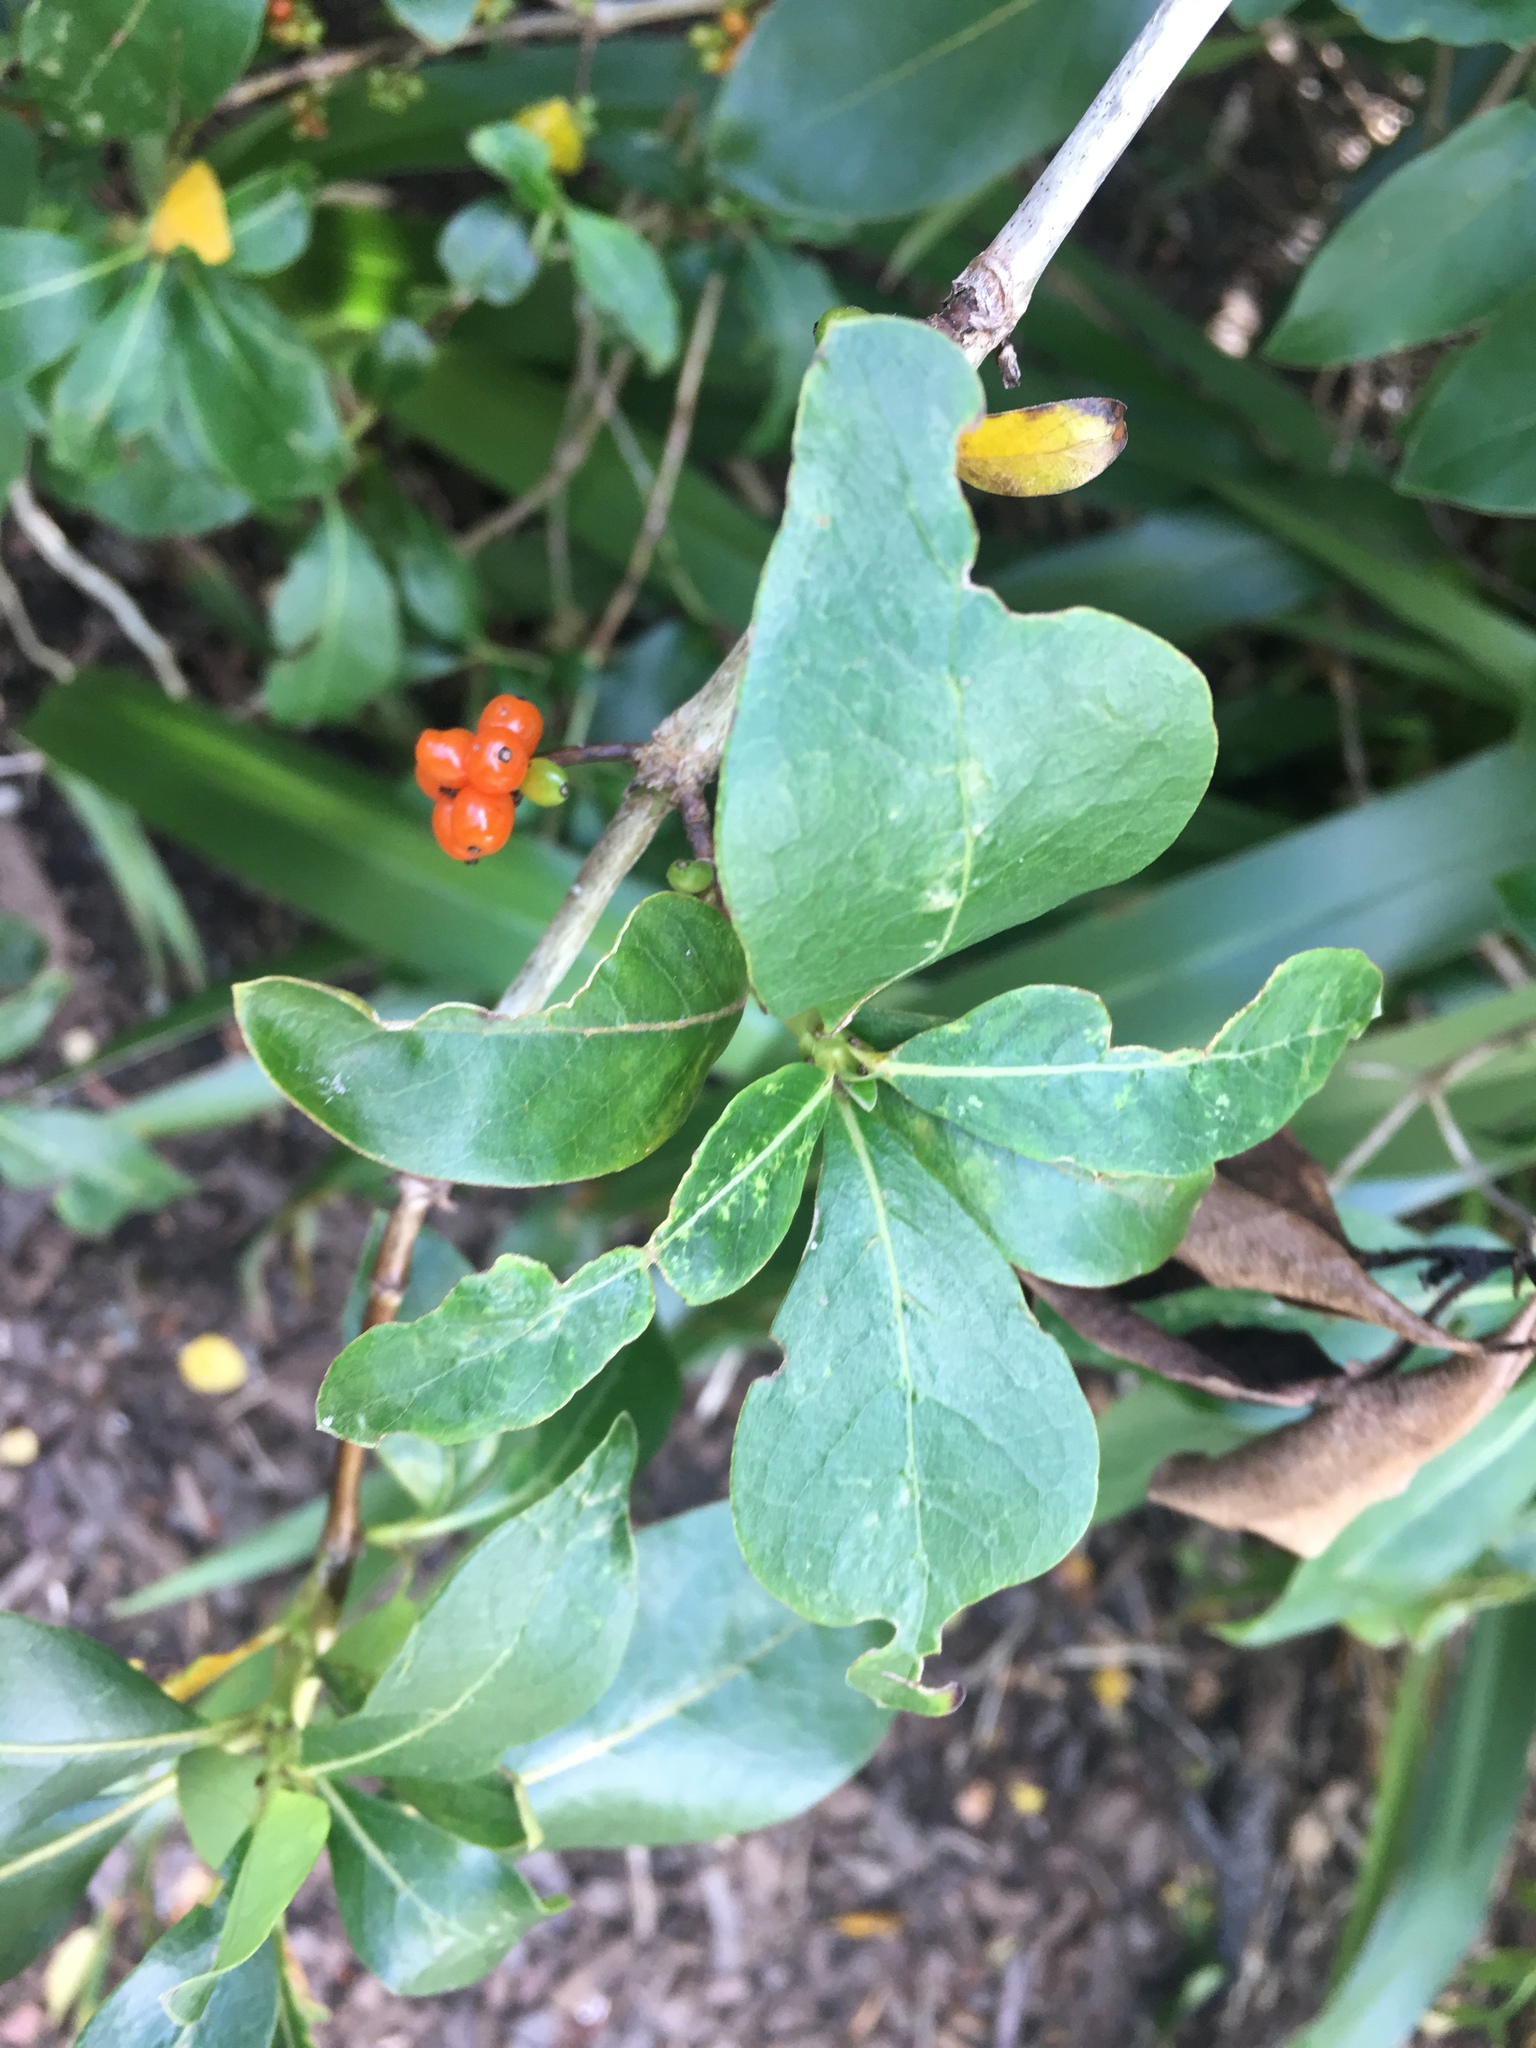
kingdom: Plantae
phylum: Tracheophyta
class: Magnoliopsida
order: Gentianales
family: Rubiaceae
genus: Coprosma
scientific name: Coprosma autumnalis
